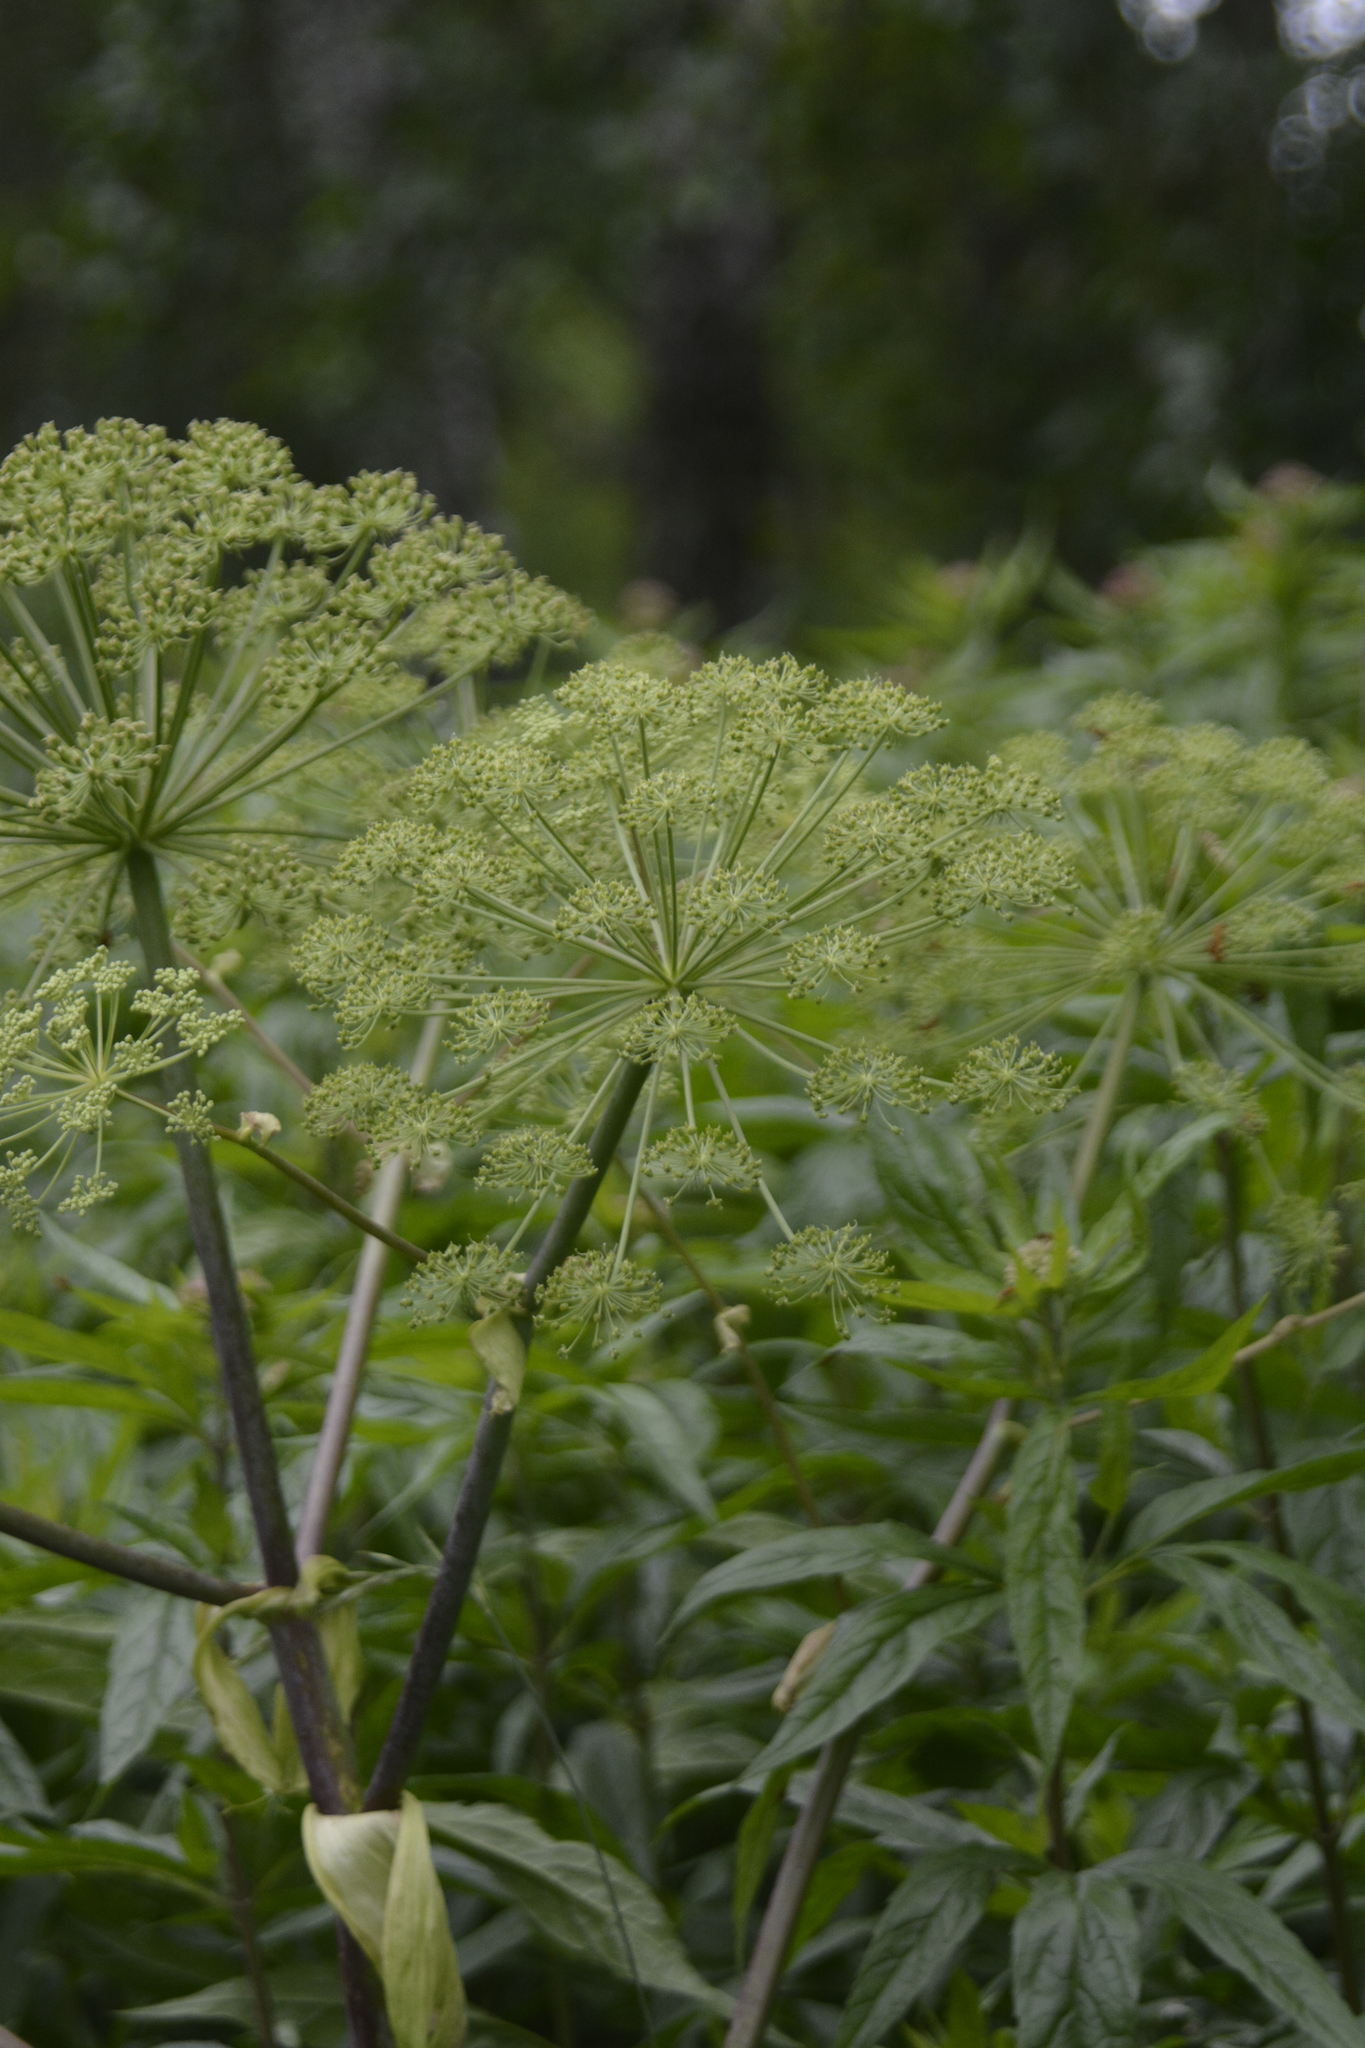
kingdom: Plantae
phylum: Tracheophyta
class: Magnoliopsida
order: Apiales
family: Apiaceae
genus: Angelica
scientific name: Angelica archangelica
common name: Garden angelica
